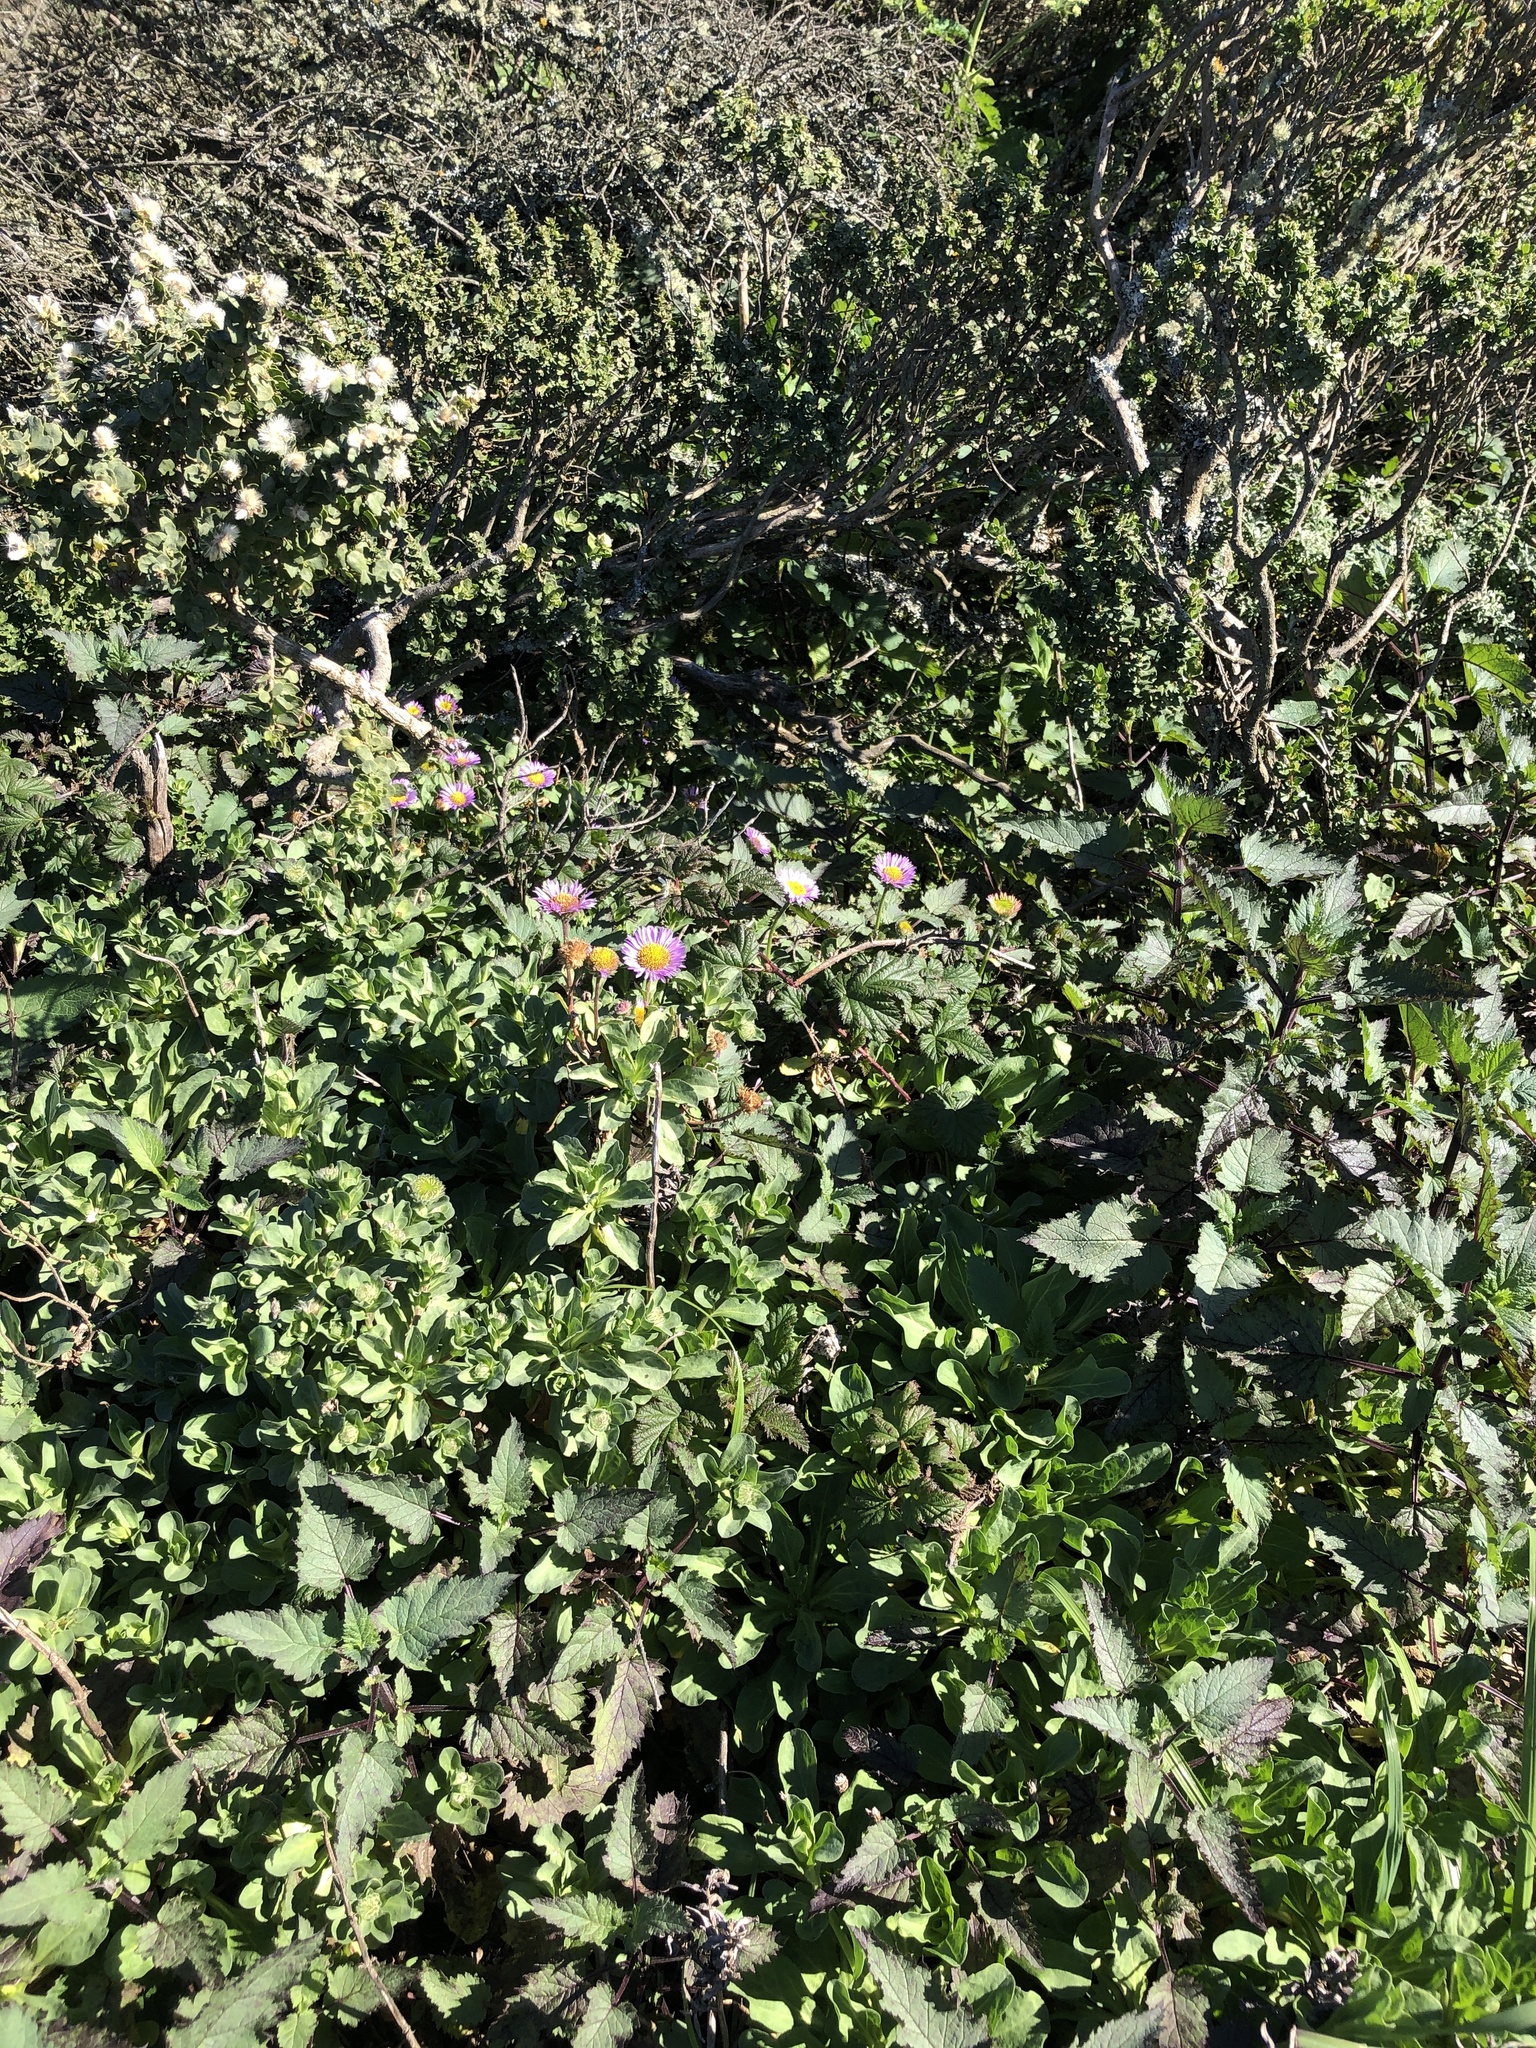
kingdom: Plantae
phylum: Tracheophyta
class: Magnoliopsida
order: Asterales
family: Asteraceae
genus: Erigeron
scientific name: Erigeron glaucus
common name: Seaside daisy
